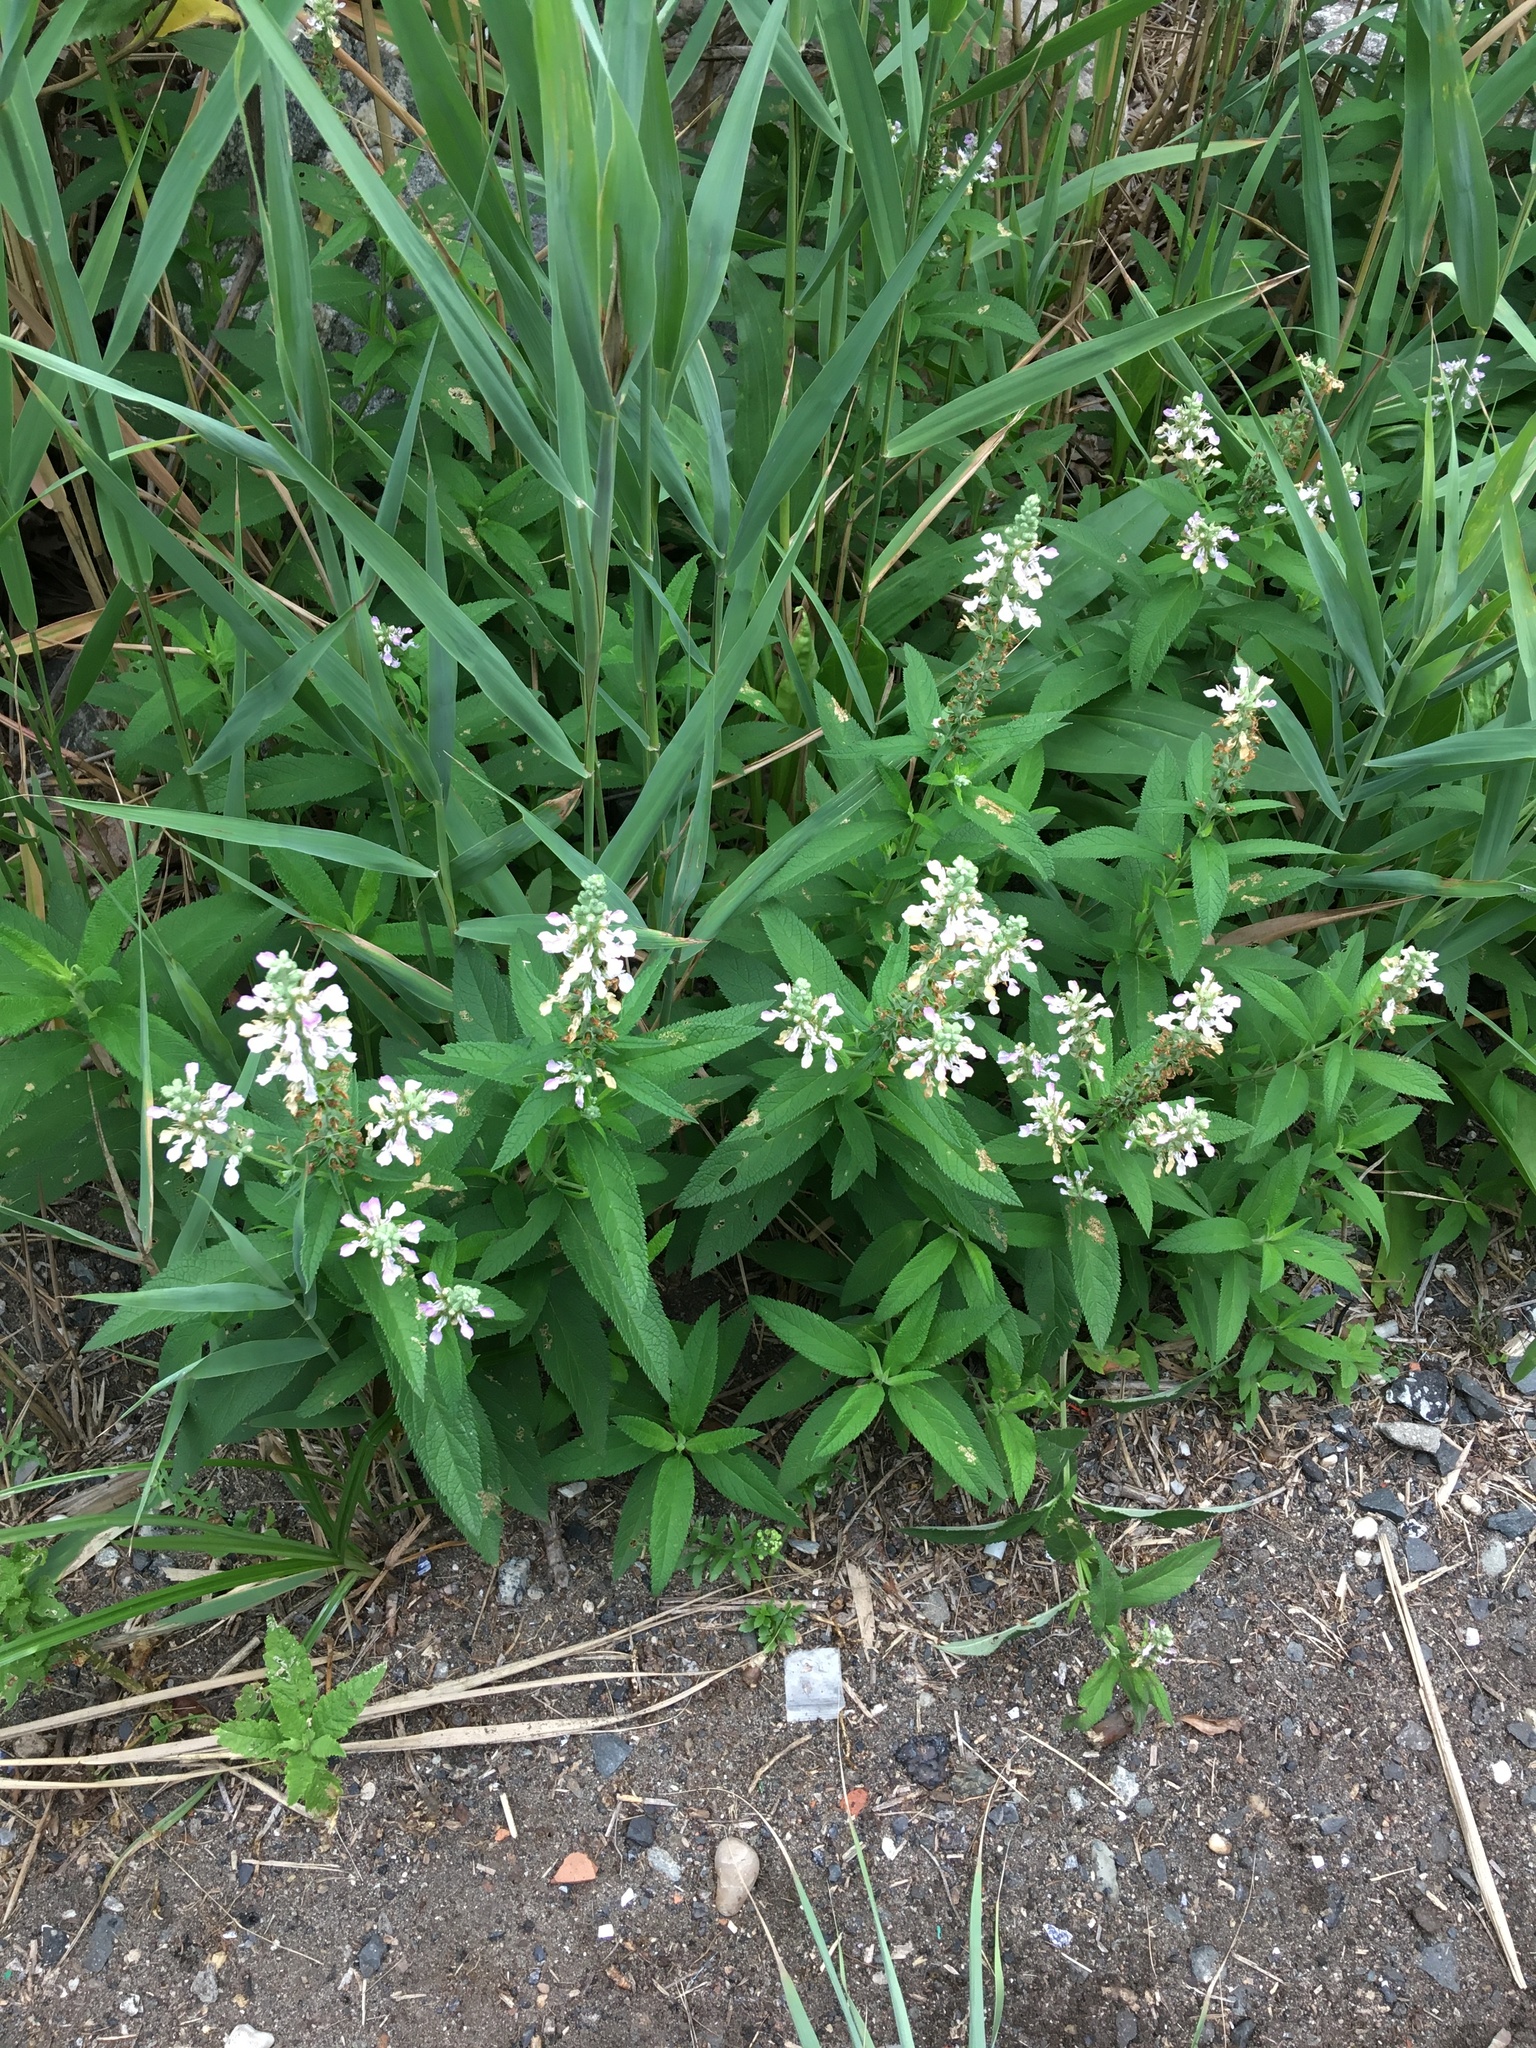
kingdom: Plantae
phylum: Tracheophyta
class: Magnoliopsida
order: Lamiales
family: Lamiaceae
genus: Teucrium
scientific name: Teucrium canadense
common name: American germander
